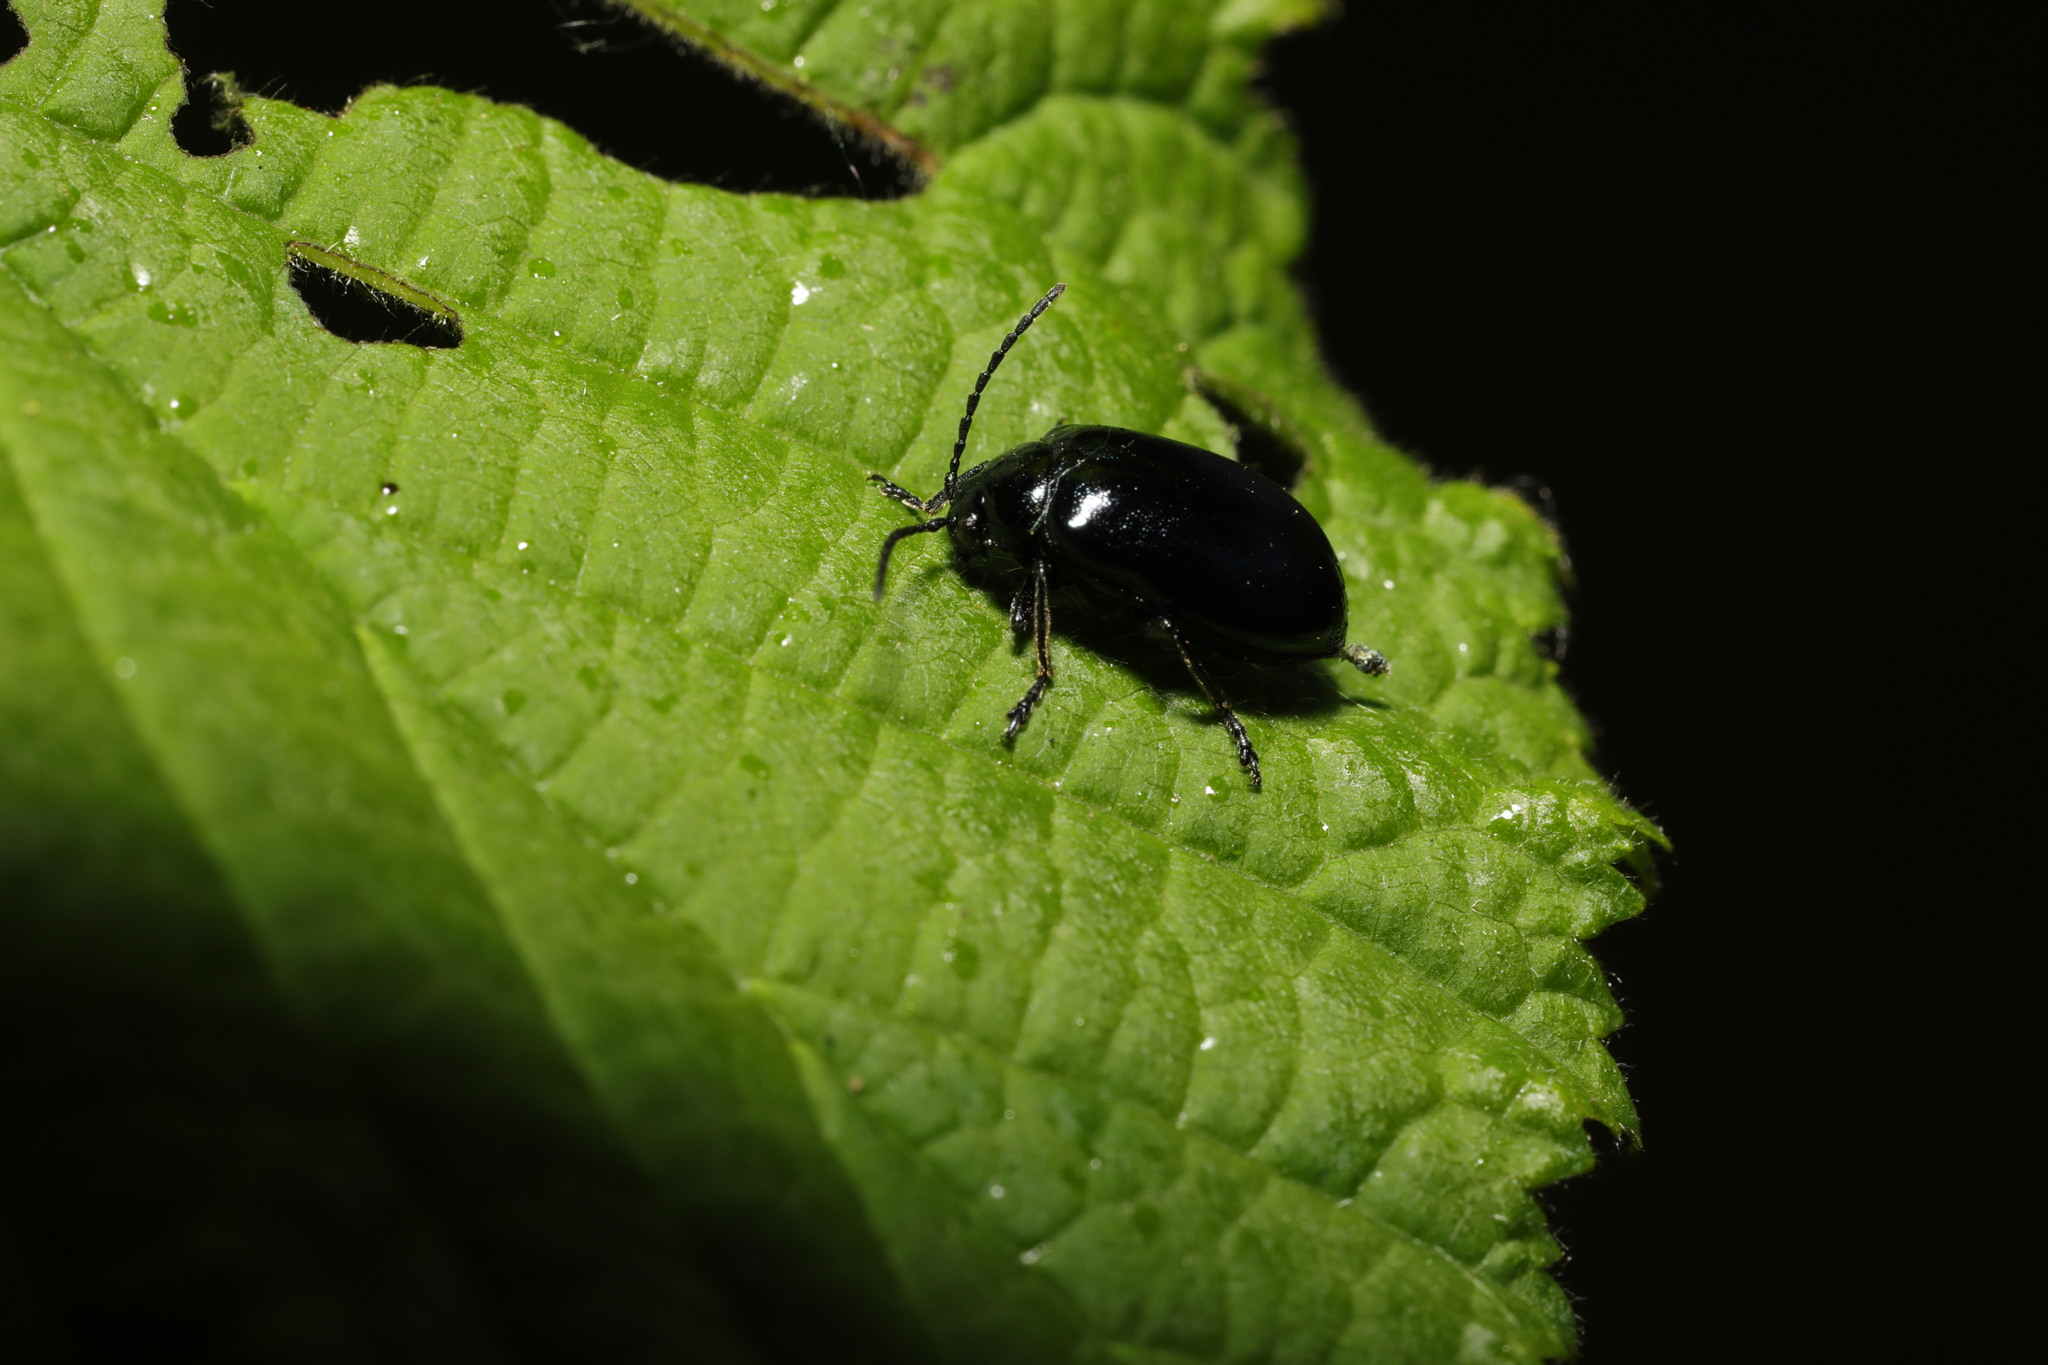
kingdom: Animalia
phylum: Arthropoda
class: Insecta
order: Coleoptera
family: Chrysomelidae
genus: Agelastica
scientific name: Agelastica alni
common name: Alder leaf beetle
